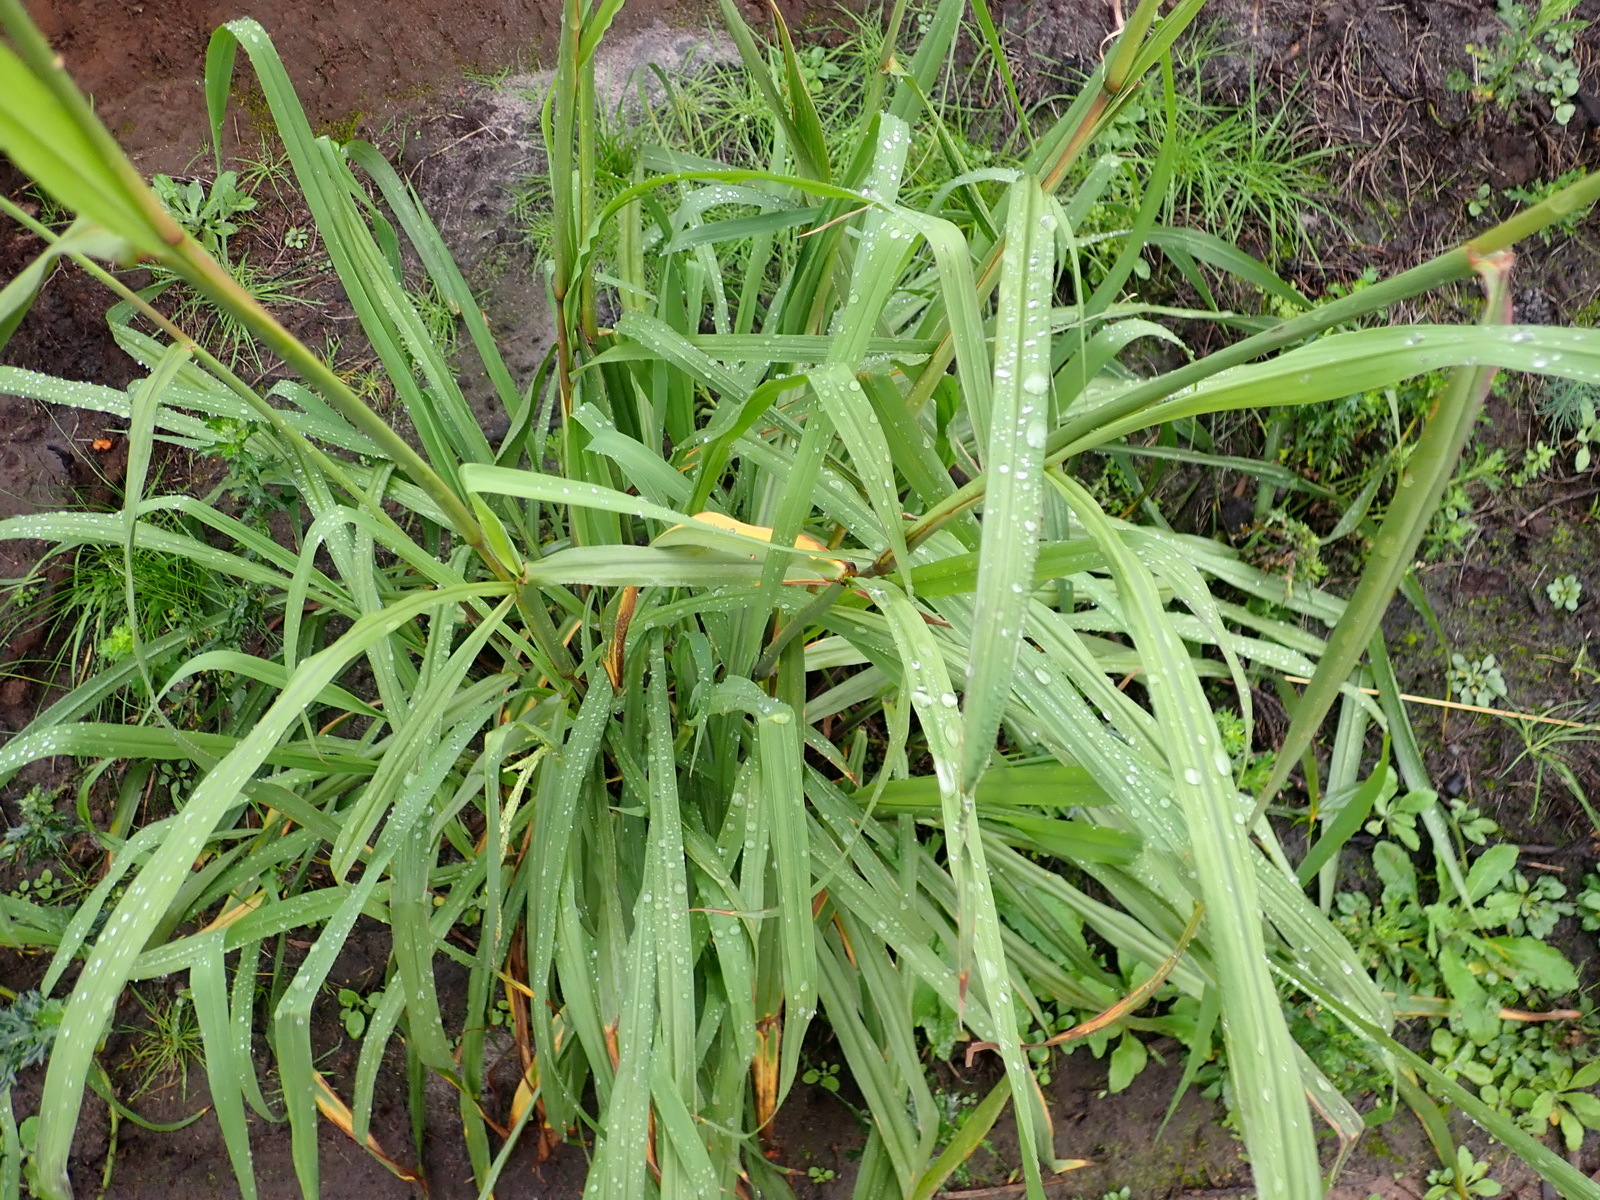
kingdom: Plantae
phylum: Tracheophyta
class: Liliopsida
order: Poales
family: Poaceae
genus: Paspalum
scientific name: Paspalum urvillei
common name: Vasey's grass
